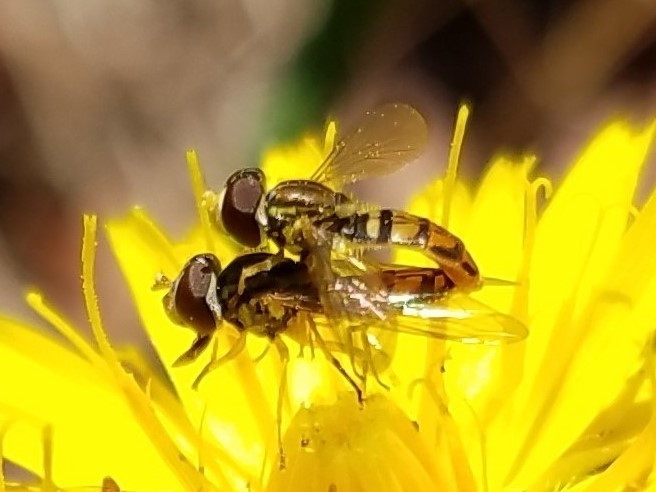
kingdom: Animalia
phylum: Arthropoda
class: Insecta
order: Diptera
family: Syrphidae
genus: Toxomerus
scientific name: Toxomerus marginatus
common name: Syrphid fly
